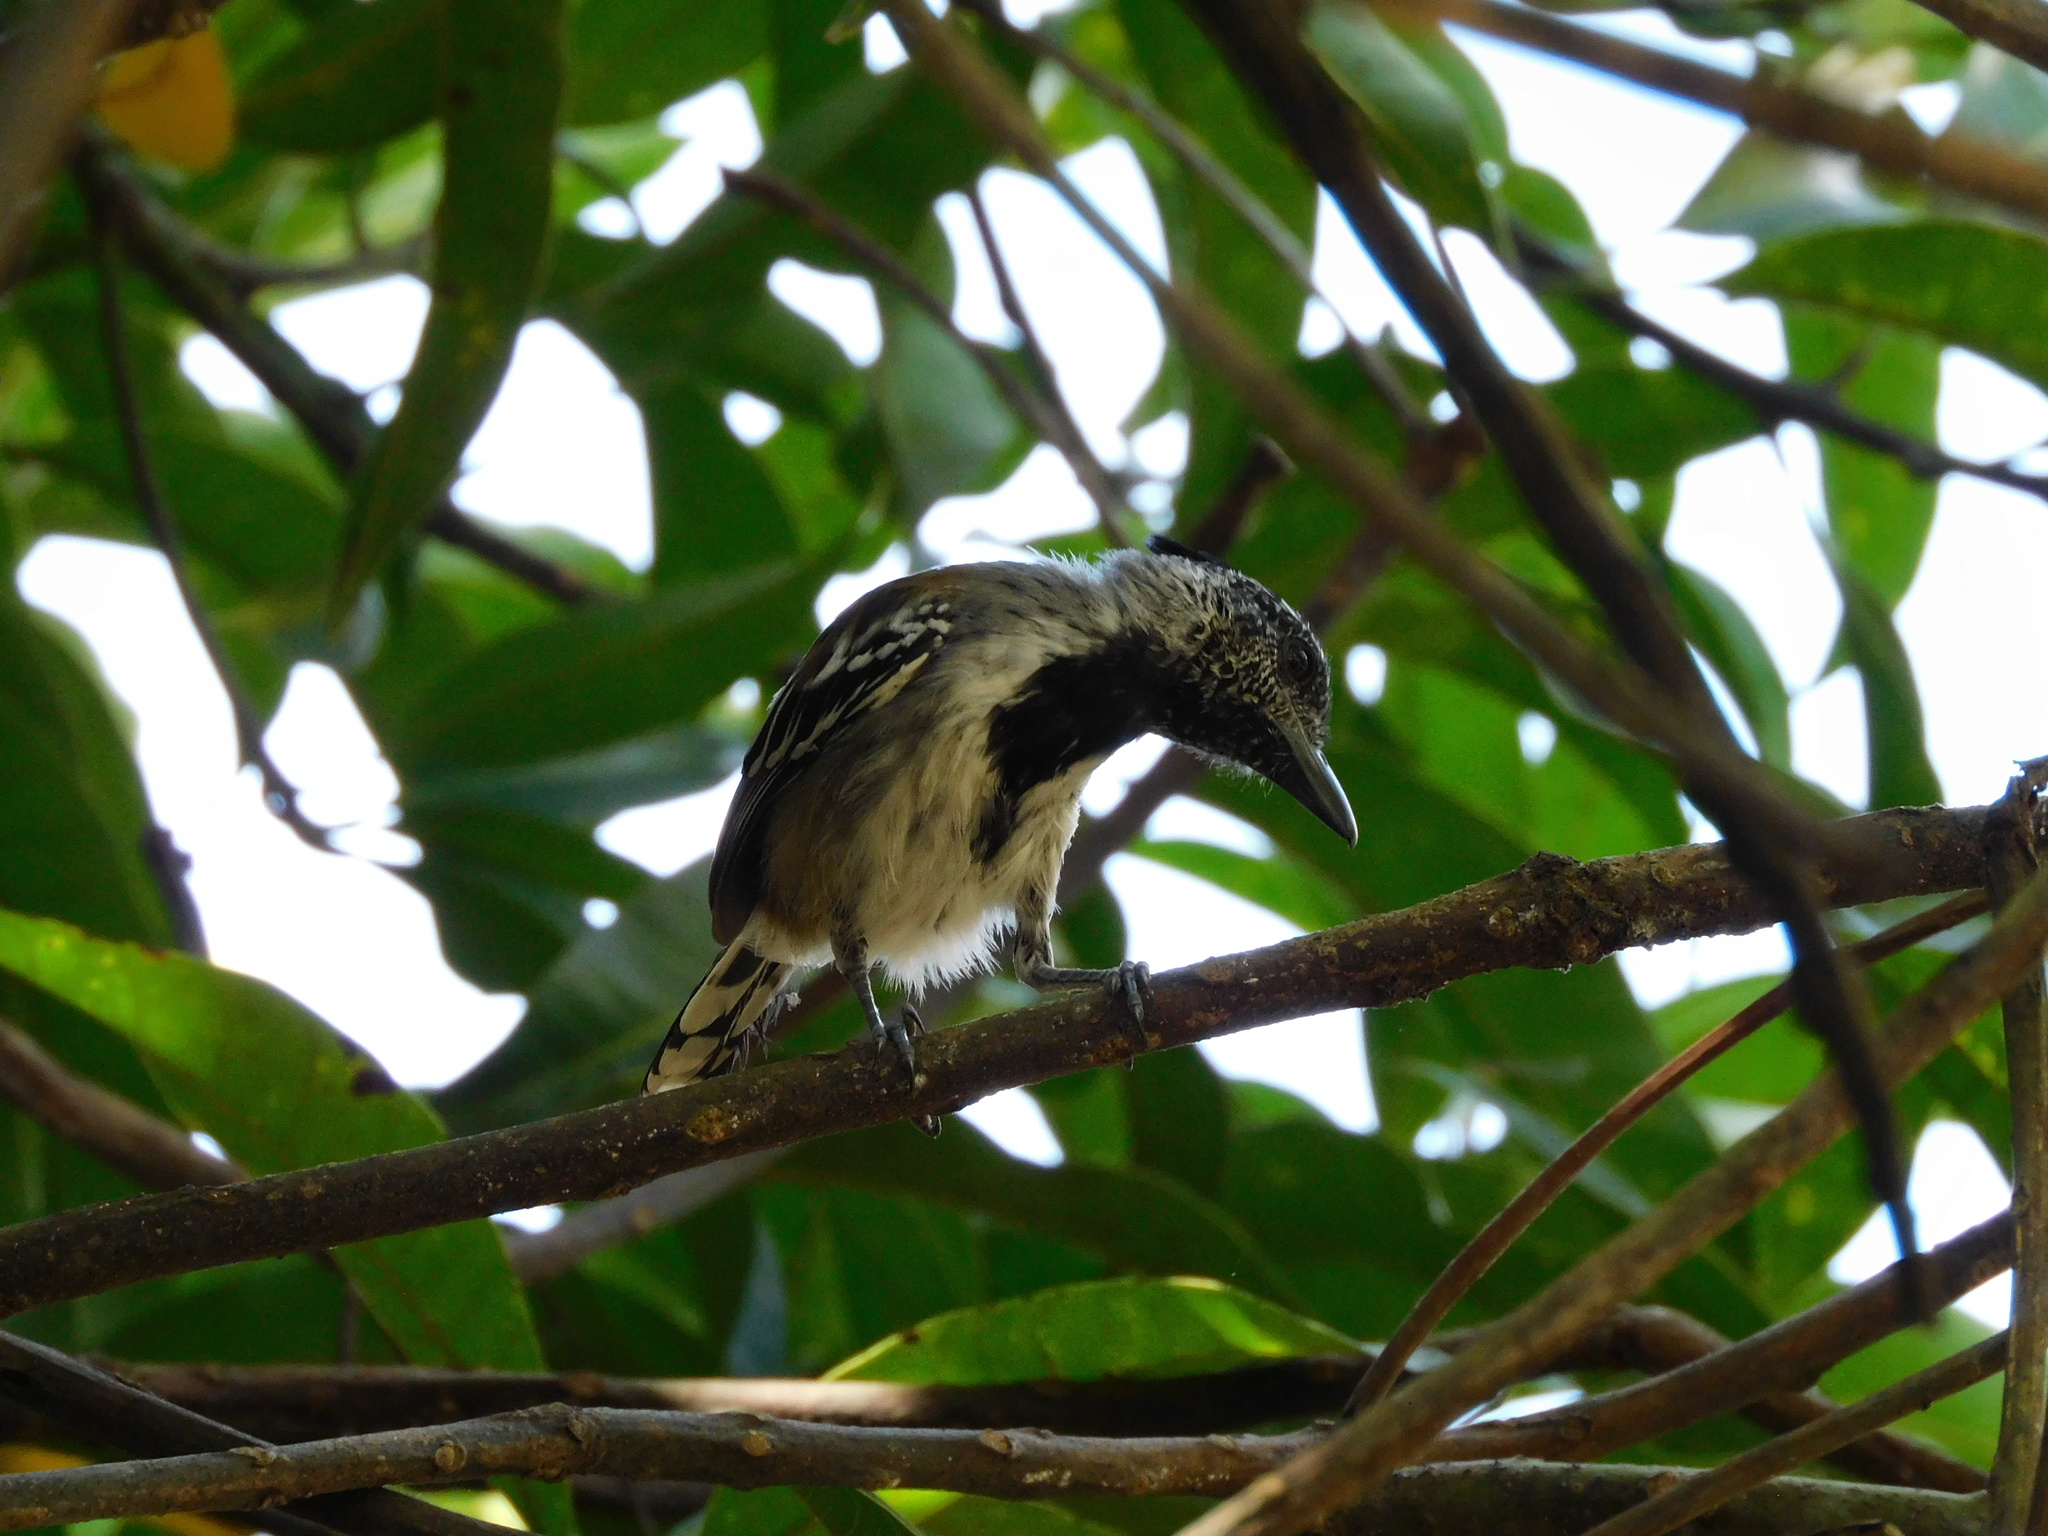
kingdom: Animalia
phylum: Chordata
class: Aves
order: Passeriformes
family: Thamnophilidae
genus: Sakesphorus
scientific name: Sakesphorus canadensis
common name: Black-crested antshrike
